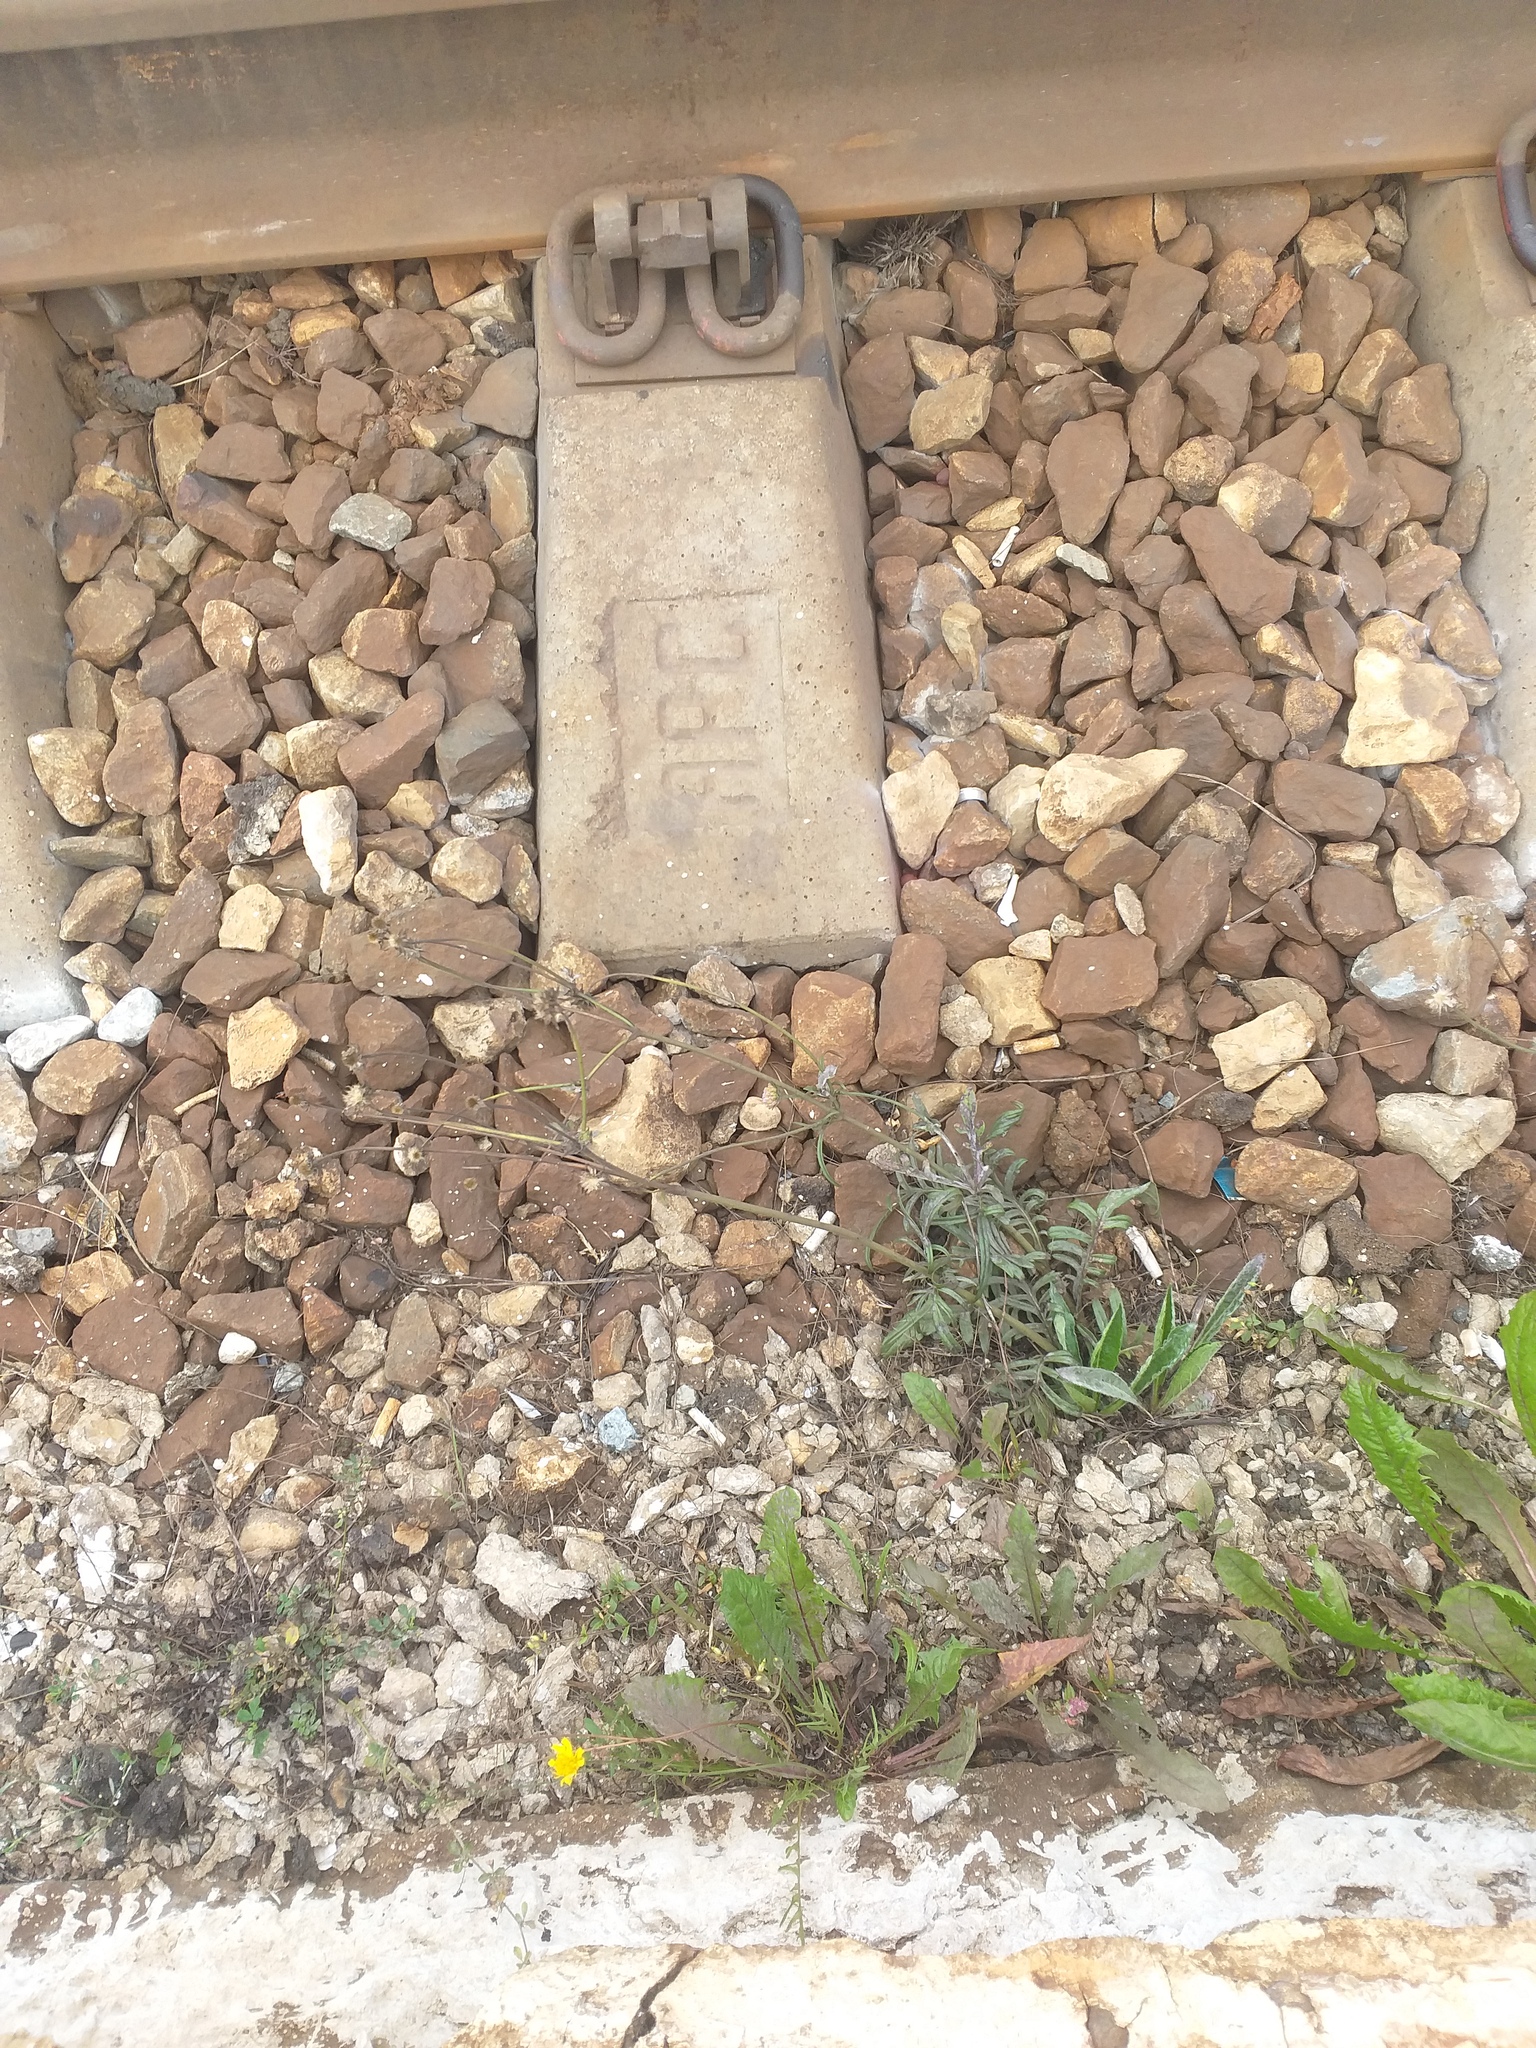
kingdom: Plantae
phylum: Tracheophyta
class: Magnoliopsida
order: Dipsacales
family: Caprifoliaceae
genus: Knautia
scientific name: Knautia arvensis
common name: Field scabiosa
